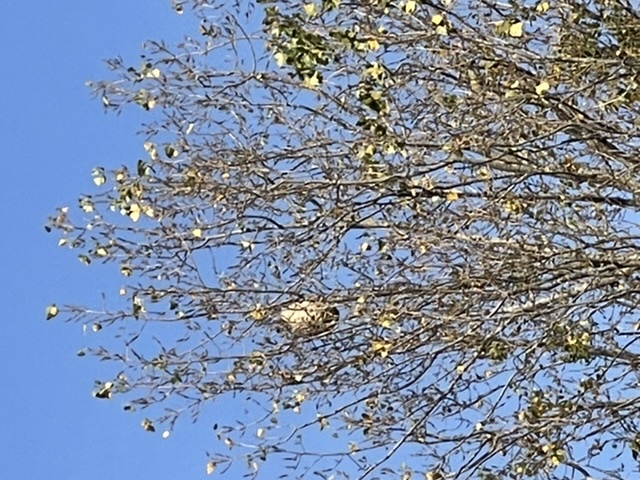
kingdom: Animalia
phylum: Arthropoda
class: Insecta
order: Hymenoptera
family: Vespidae
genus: Vespa
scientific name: Vespa velutina
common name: Asian hornet
